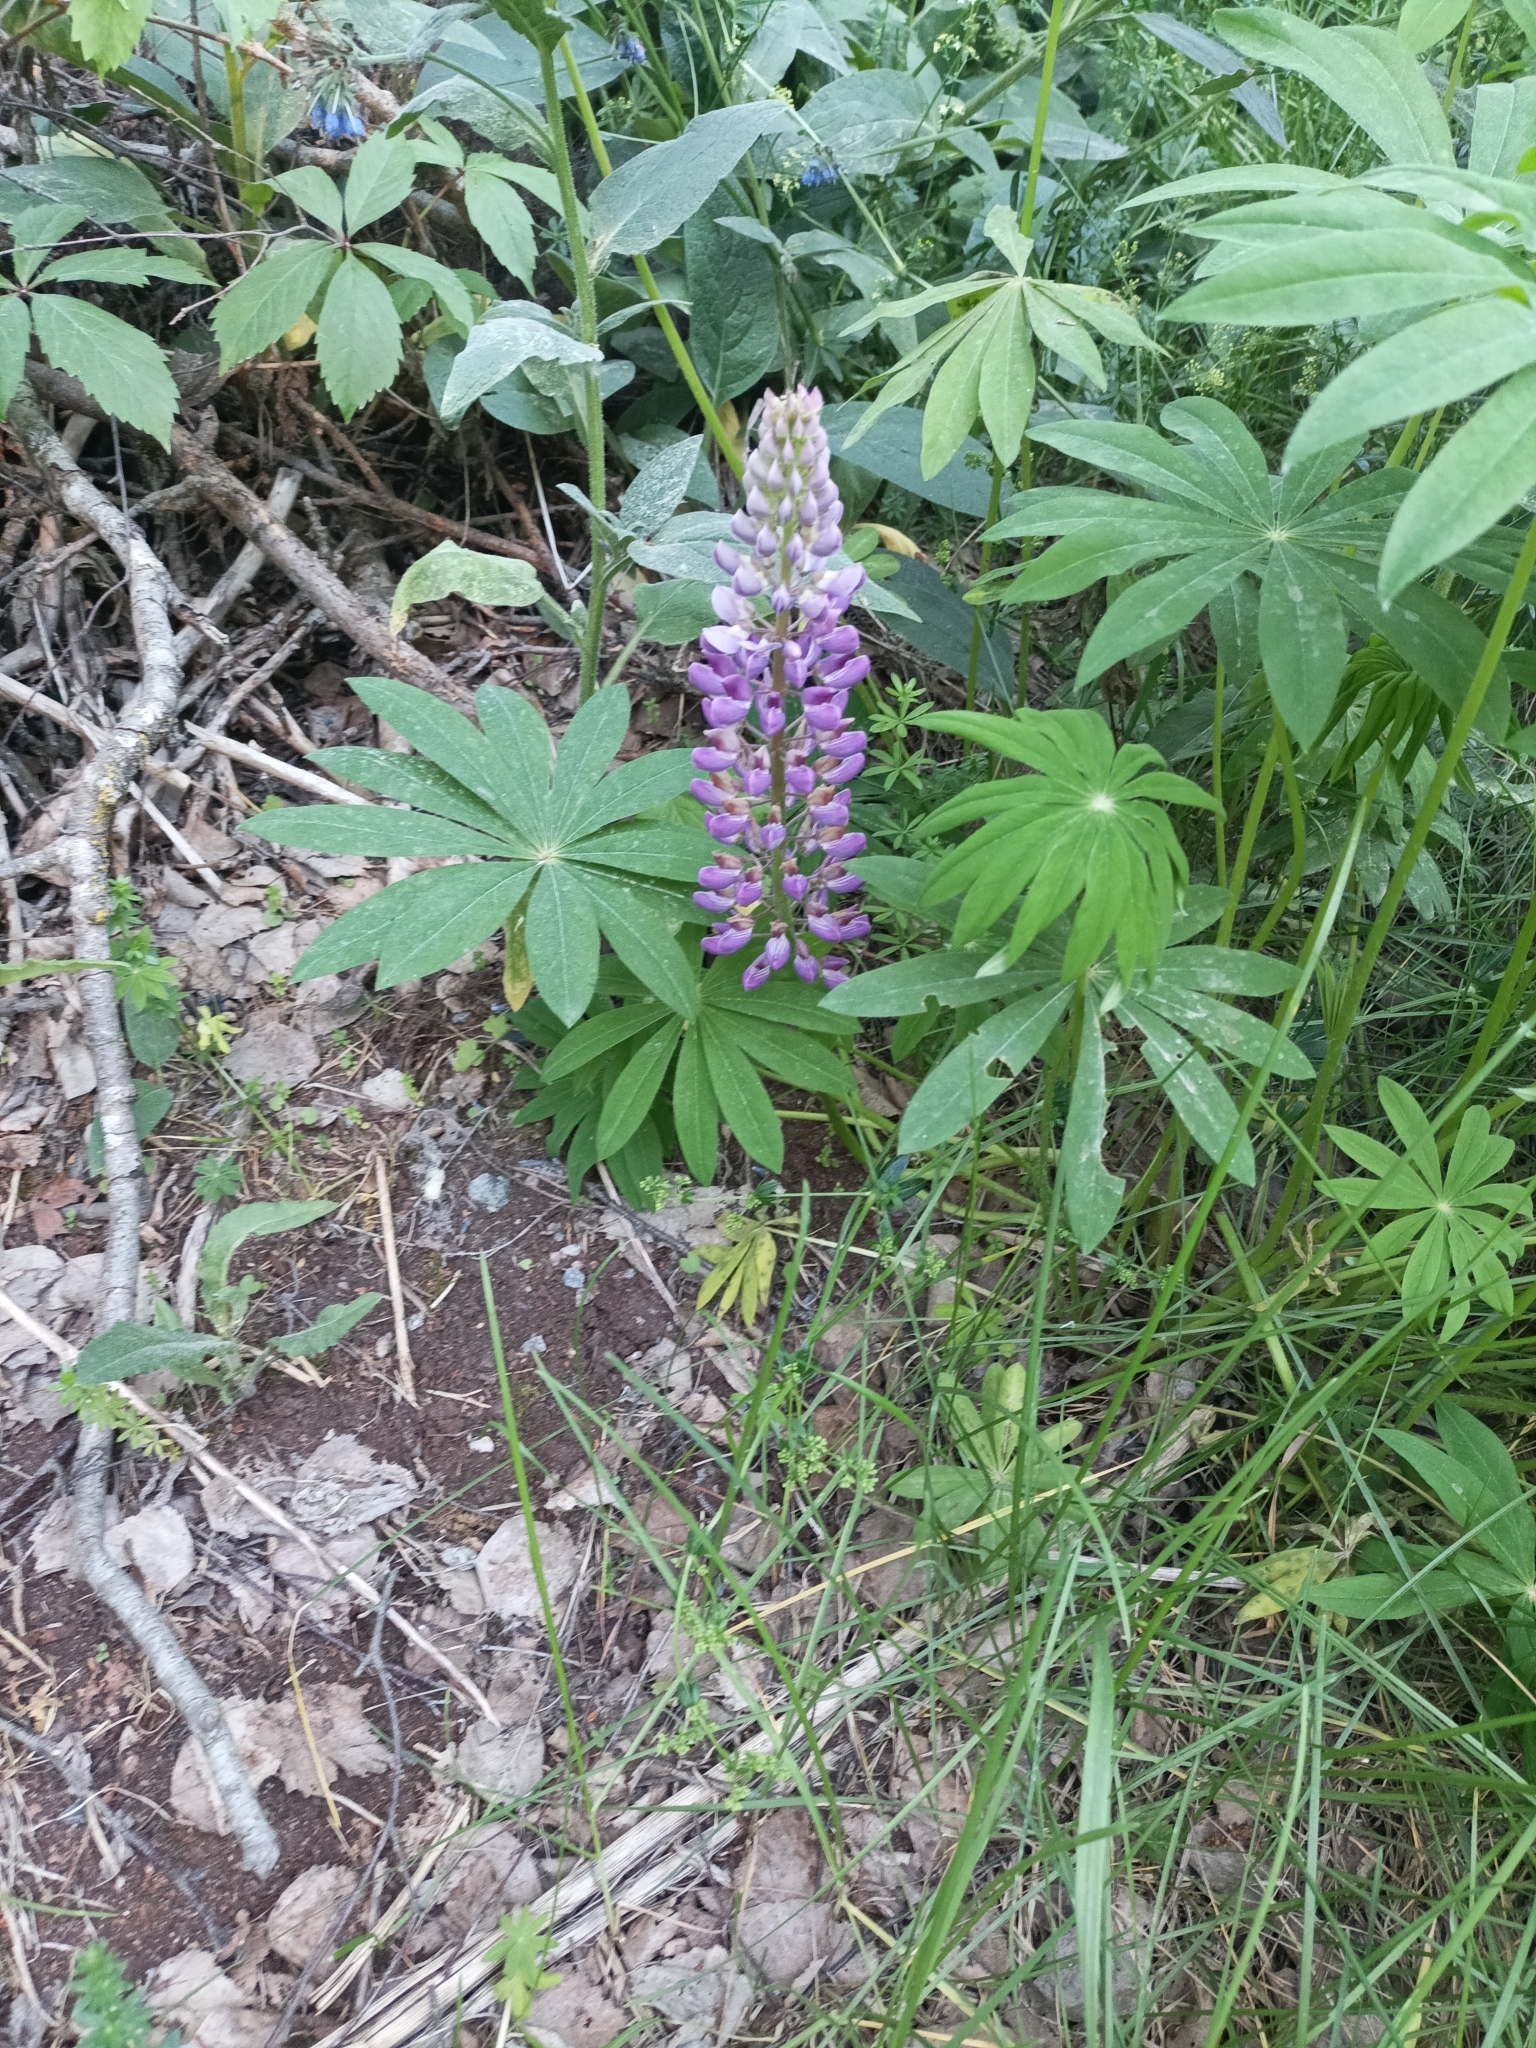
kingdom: Plantae
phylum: Tracheophyta
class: Magnoliopsida
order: Fabales
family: Fabaceae
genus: Lupinus
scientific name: Lupinus polyphyllus
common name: Garden lupin
